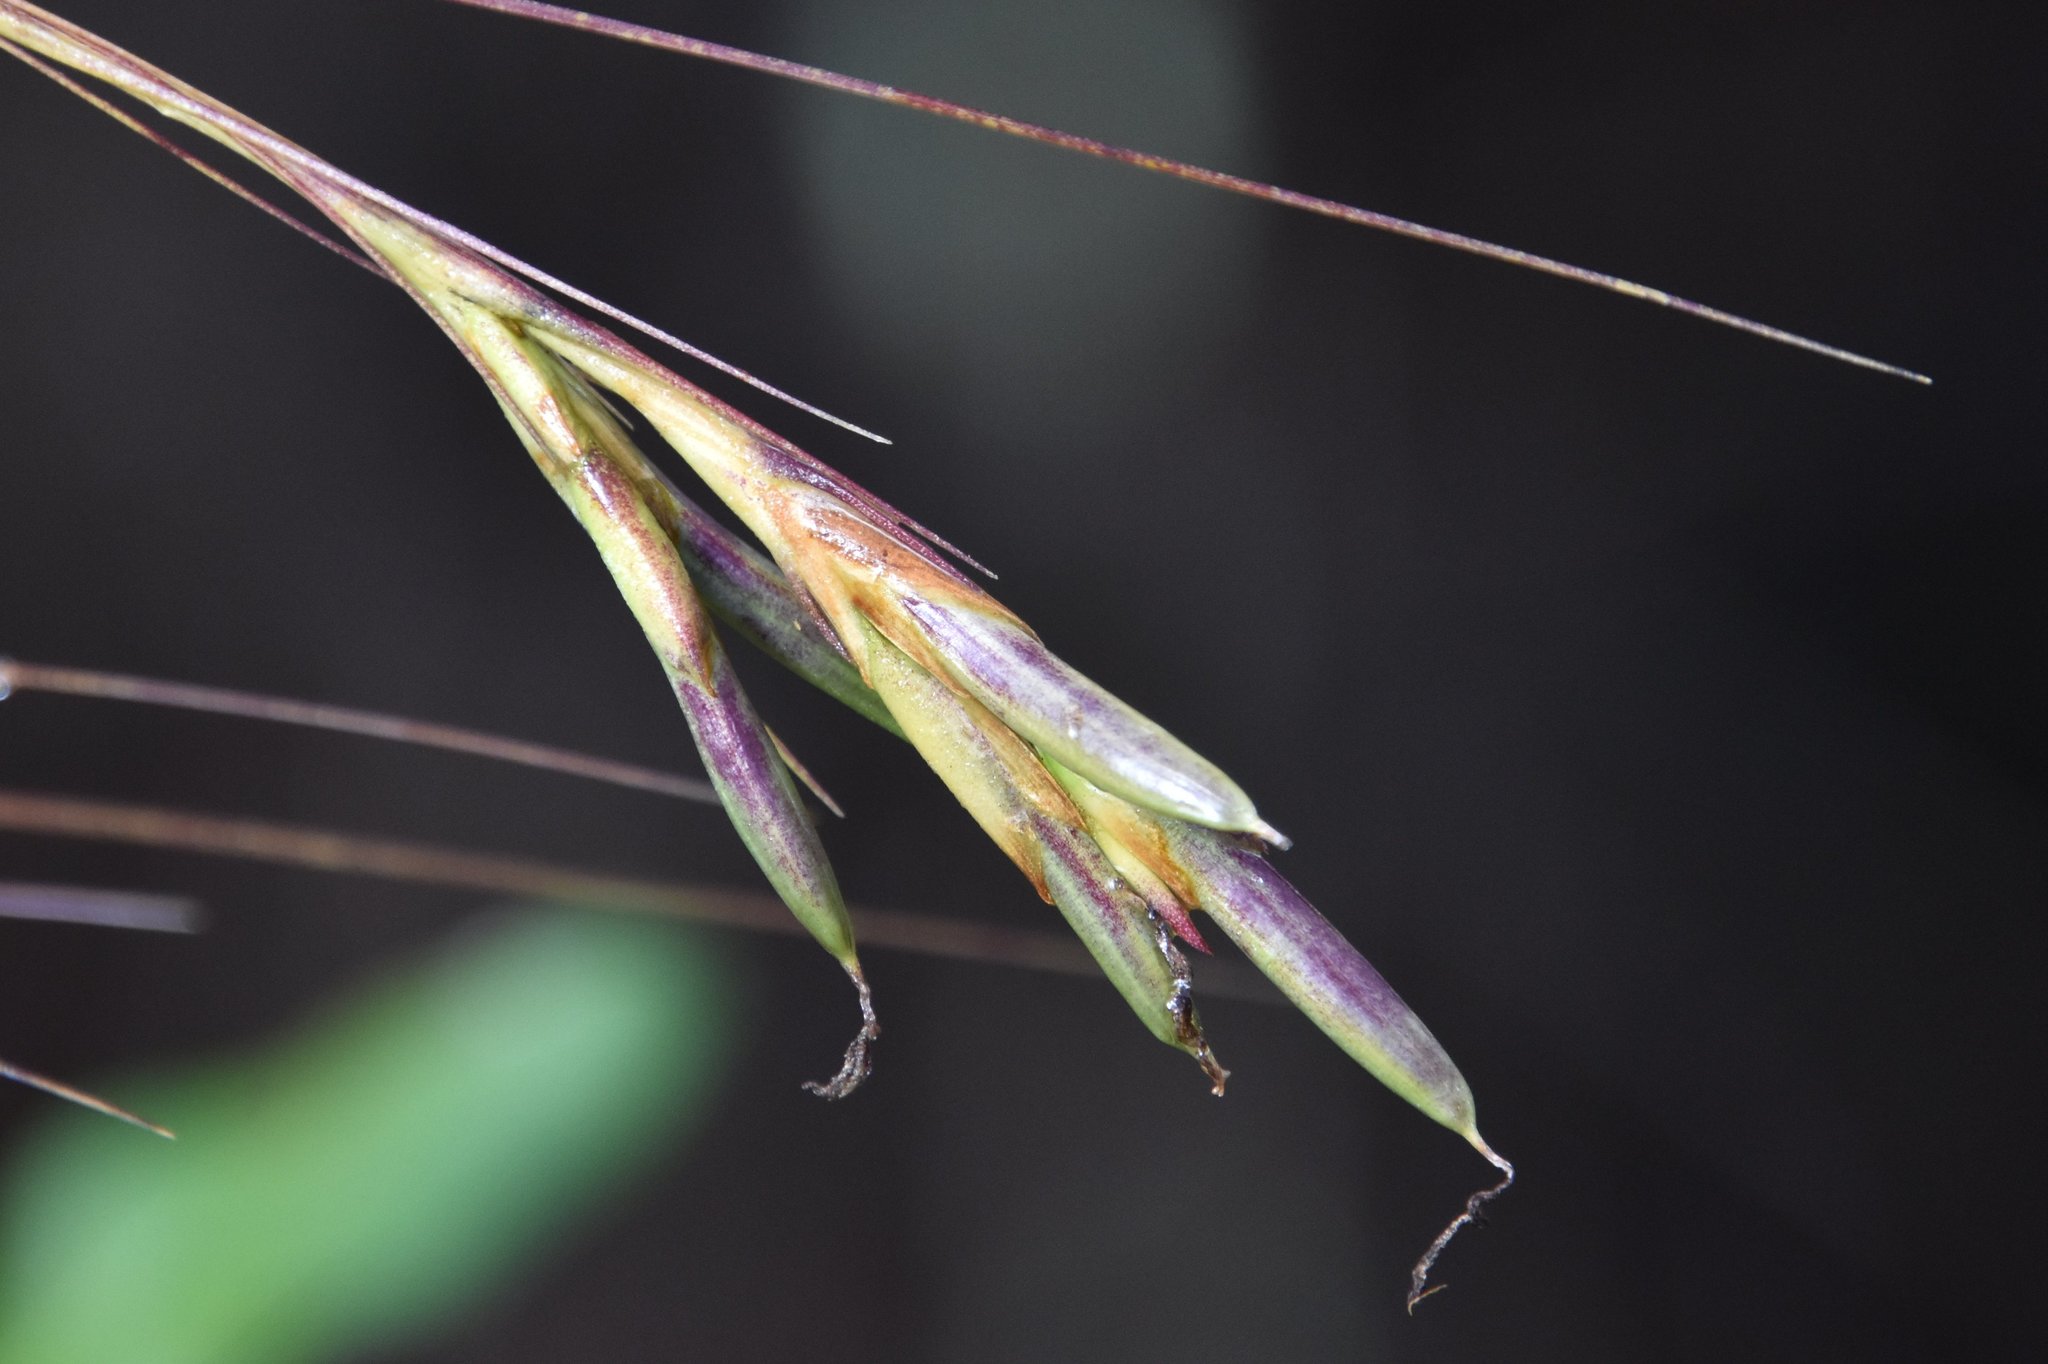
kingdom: Plantae
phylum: Tracheophyta
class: Liliopsida
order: Poales
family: Bromeliaceae
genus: Tillandsia
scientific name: Tillandsia setacea
